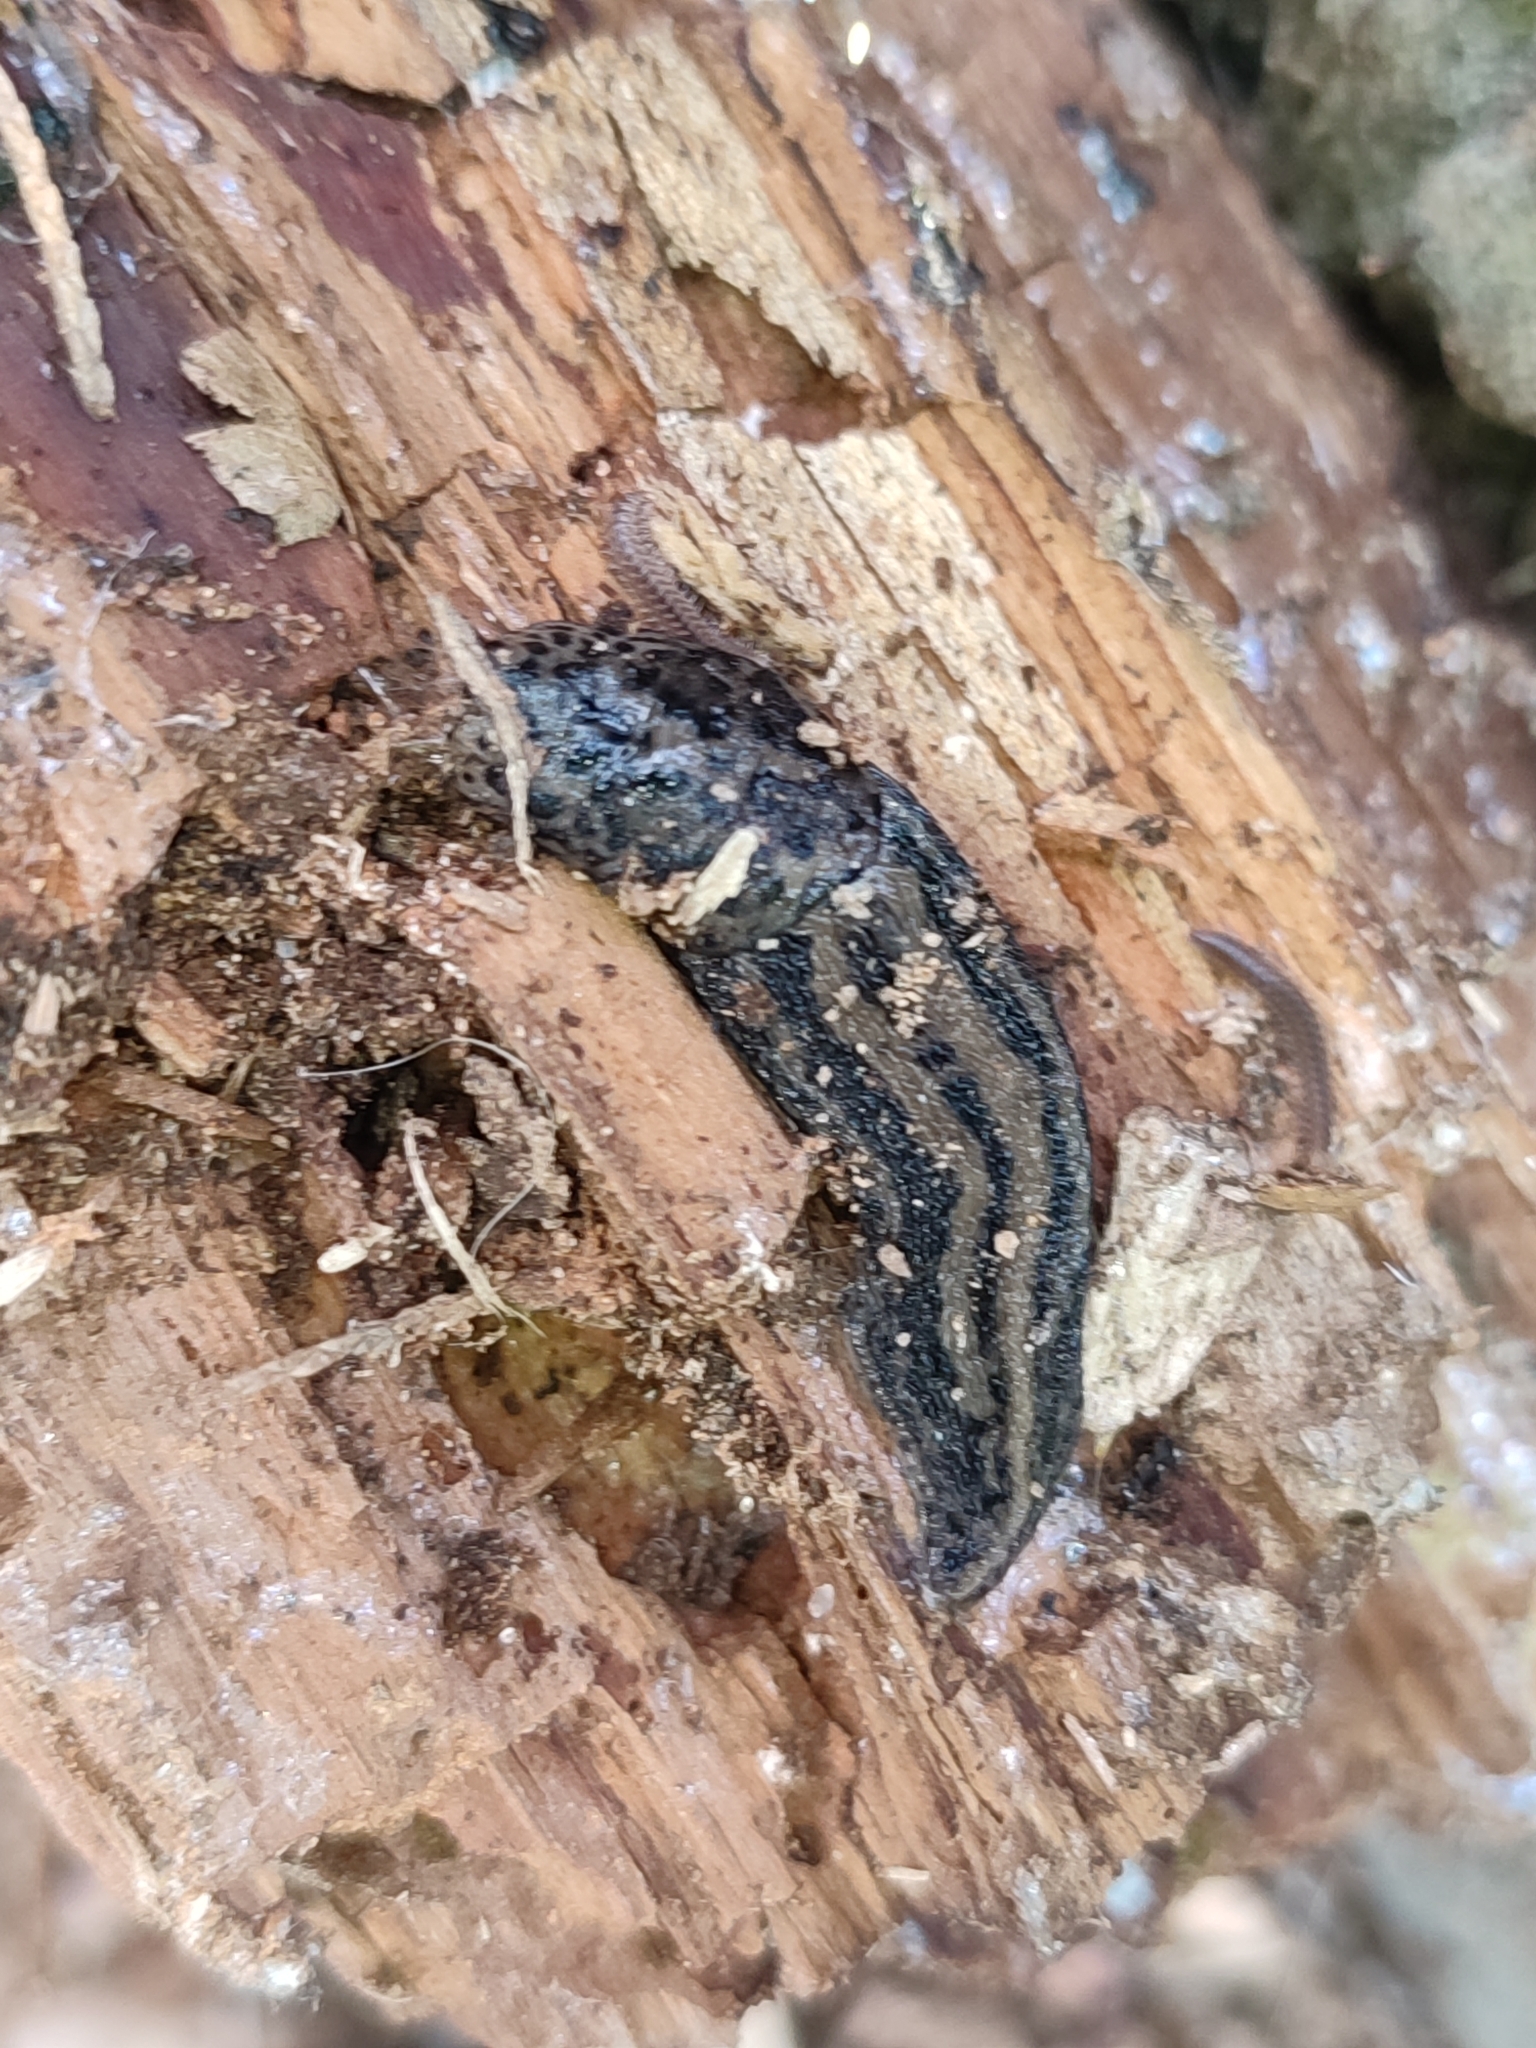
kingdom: Animalia
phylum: Mollusca
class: Gastropoda
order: Stylommatophora
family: Limacidae
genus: Limax
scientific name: Limax maximus
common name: Great grey slug
